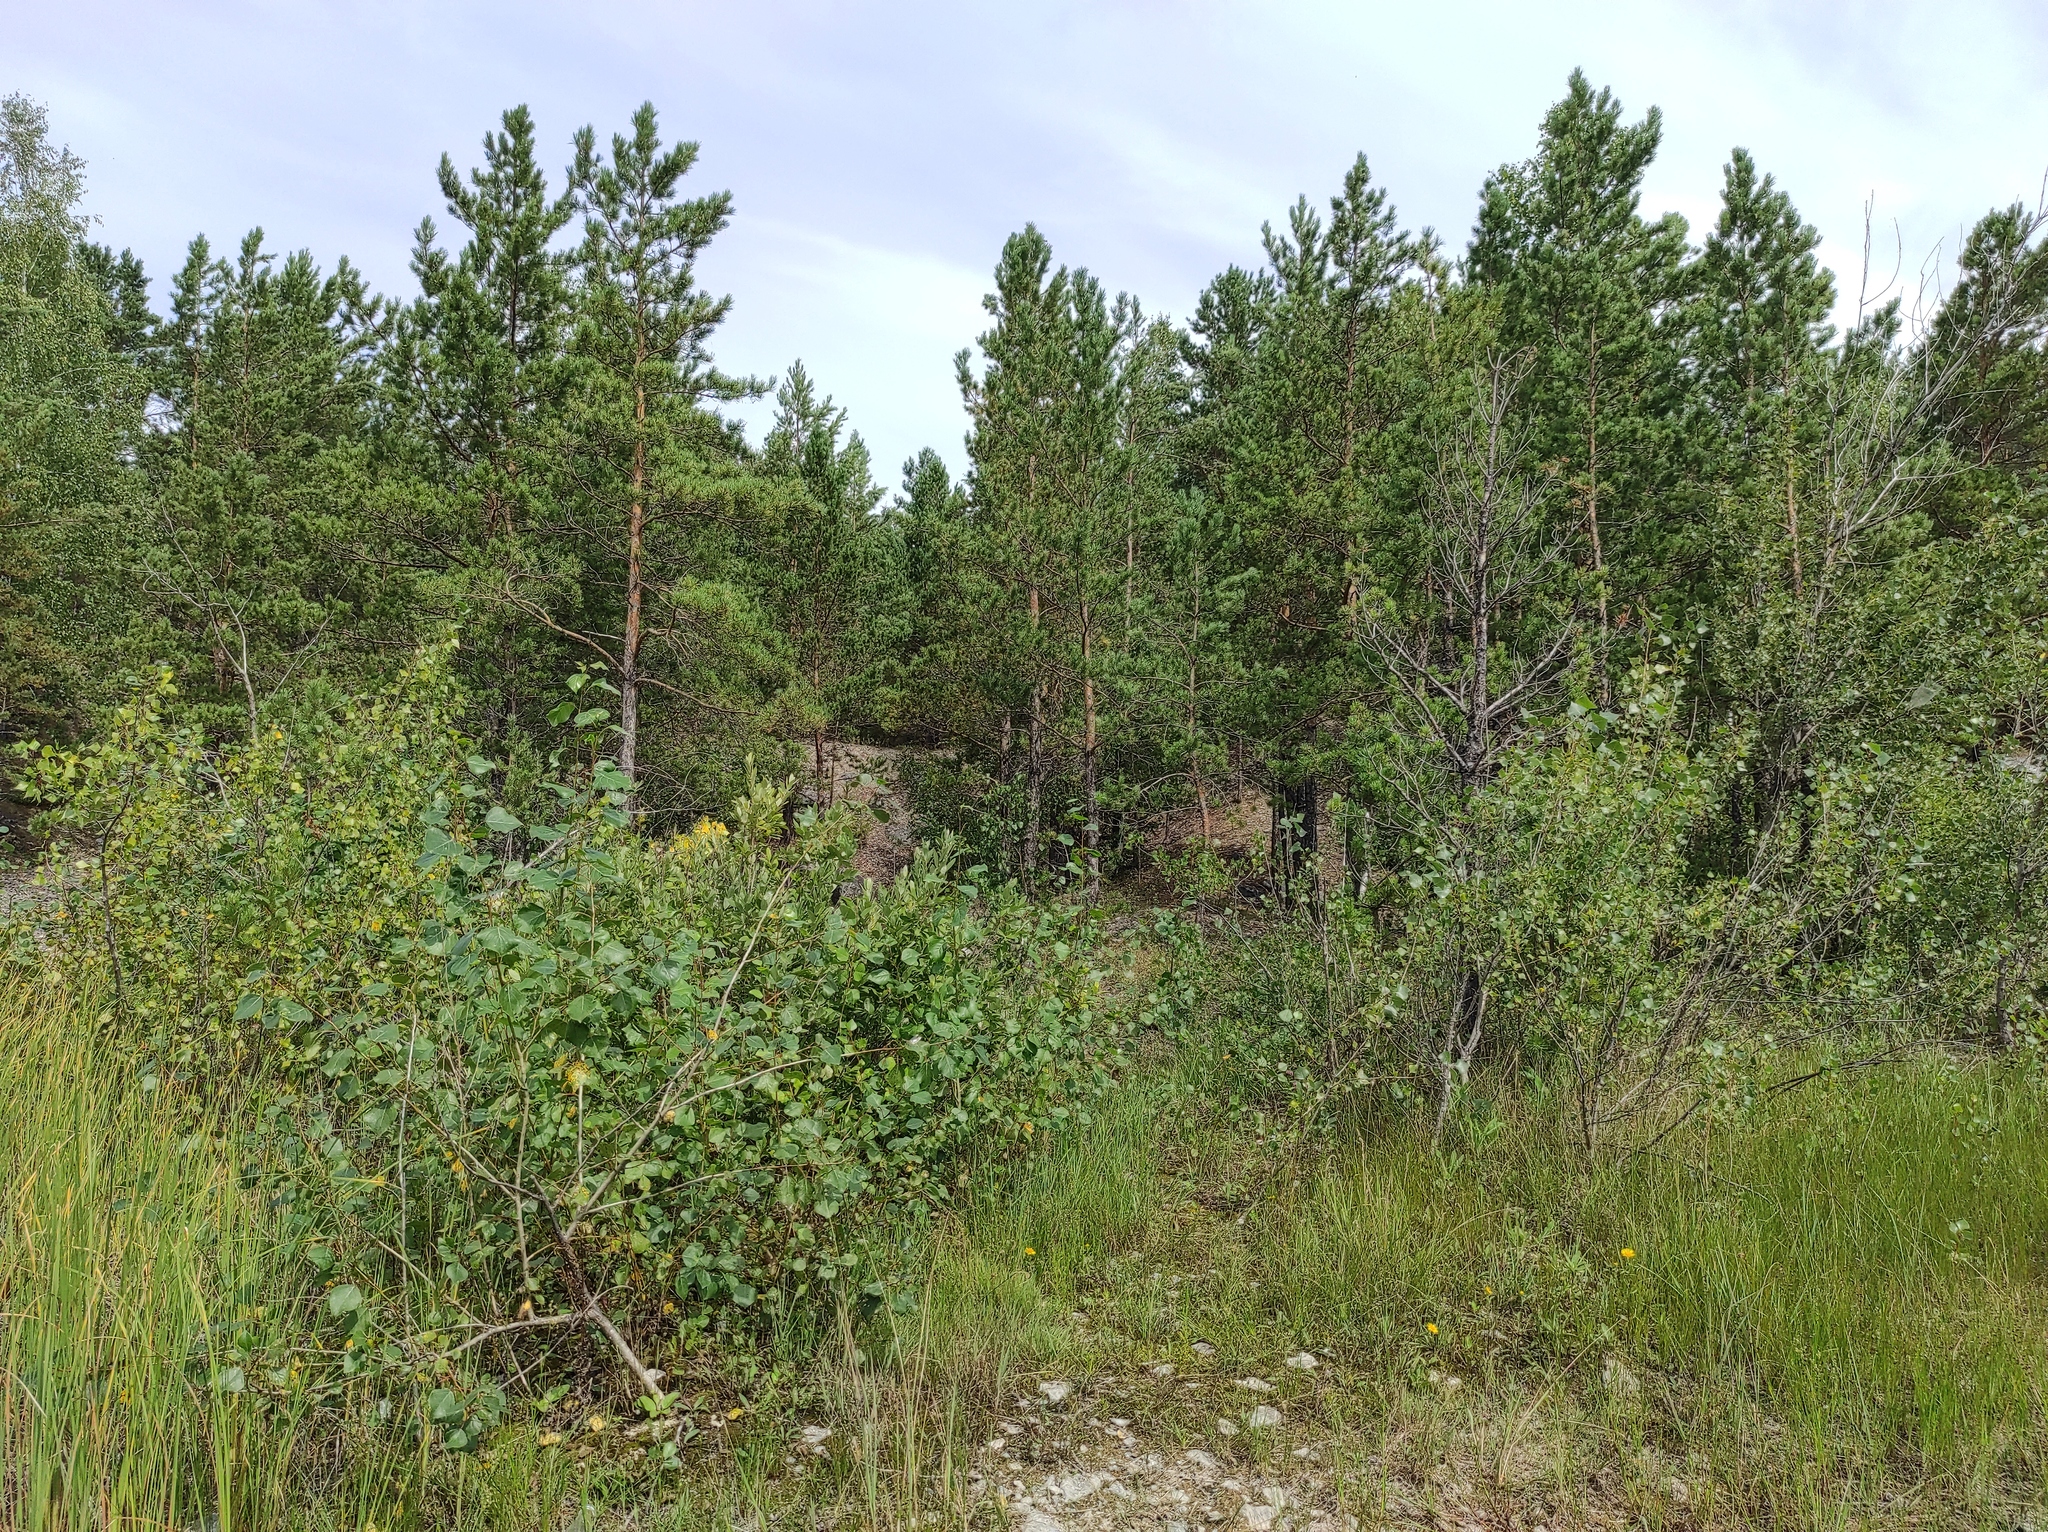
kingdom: Plantae
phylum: Tracheophyta
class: Magnoliopsida
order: Fagales
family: Betulaceae
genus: Betula
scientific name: Betula pendula
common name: Silver birch
